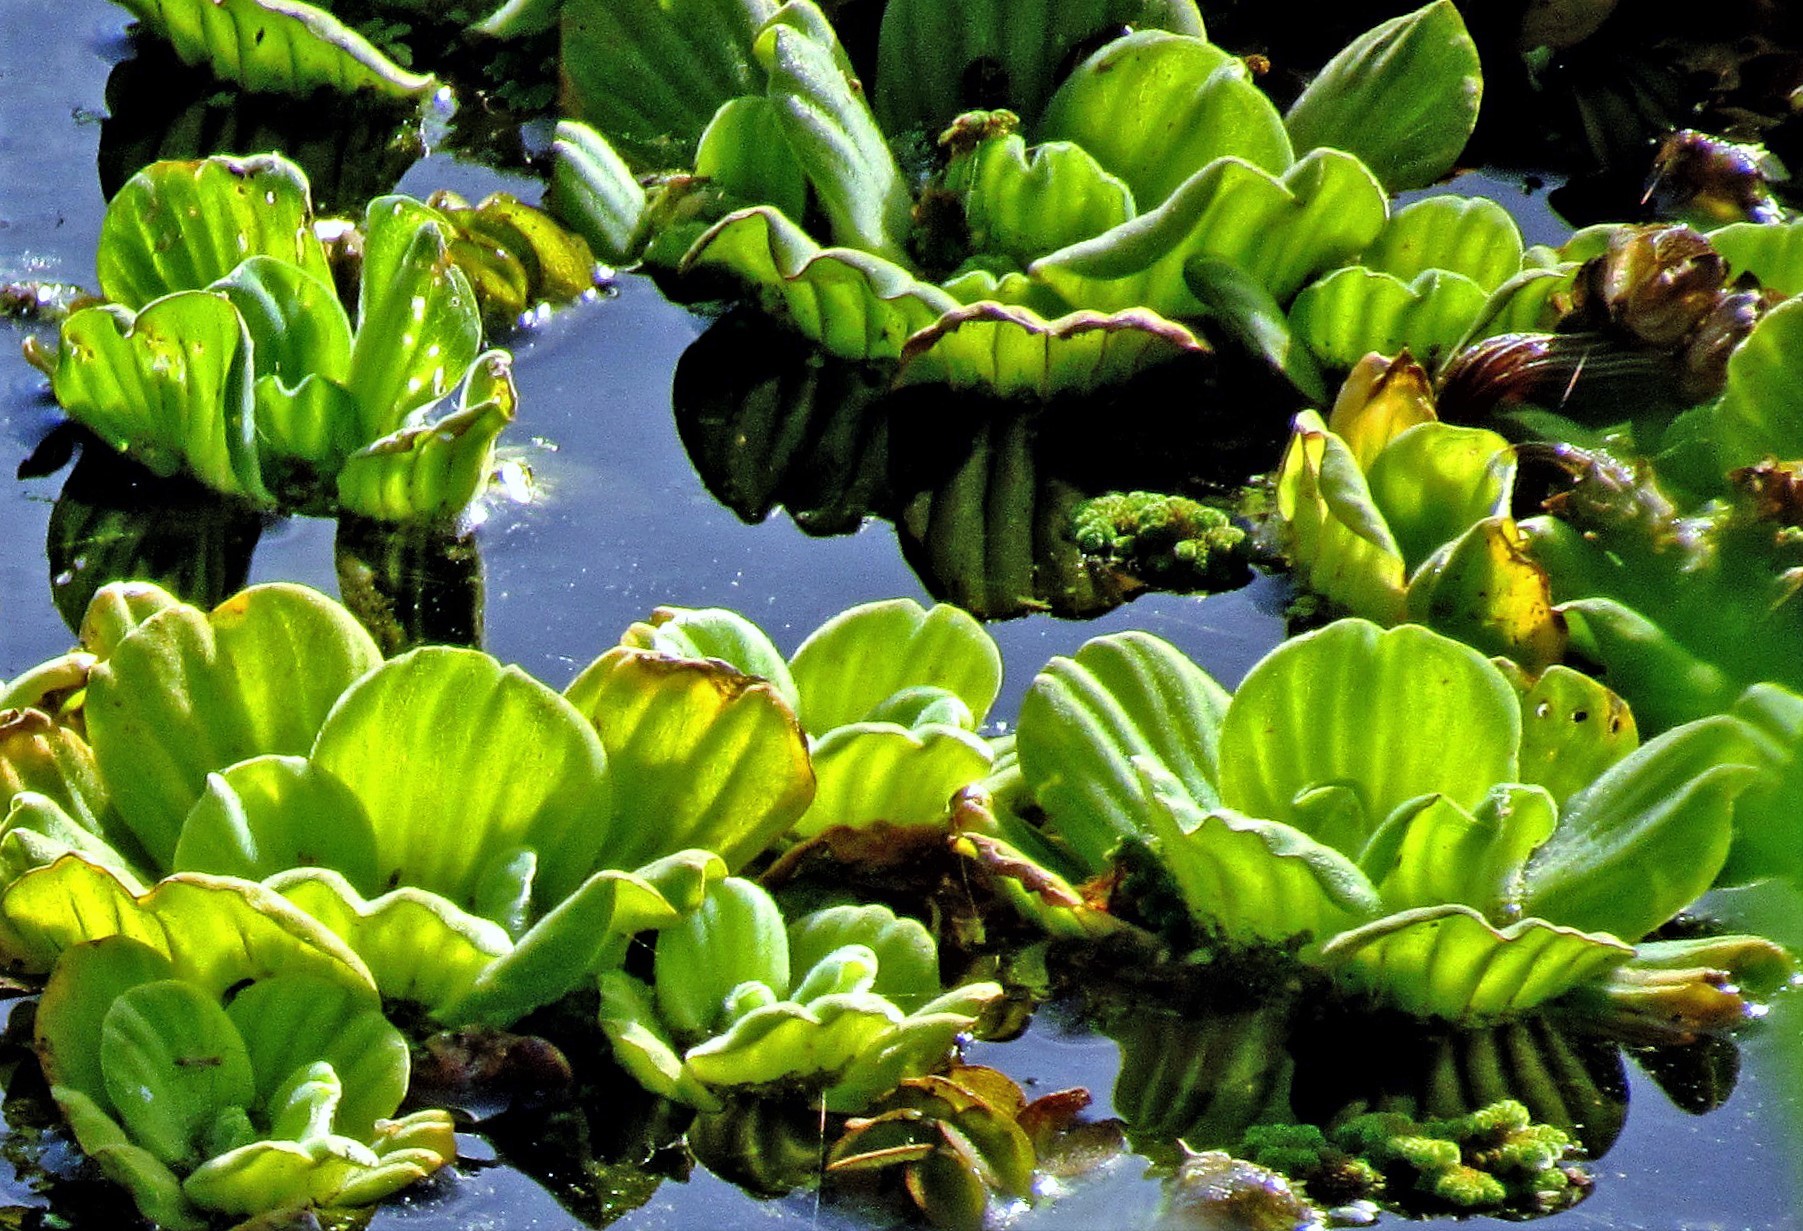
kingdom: Plantae
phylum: Tracheophyta
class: Liliopsida
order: Alismatales
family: Araceae
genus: Pistia
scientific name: Pistia stratiotes
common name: Water lettuce
